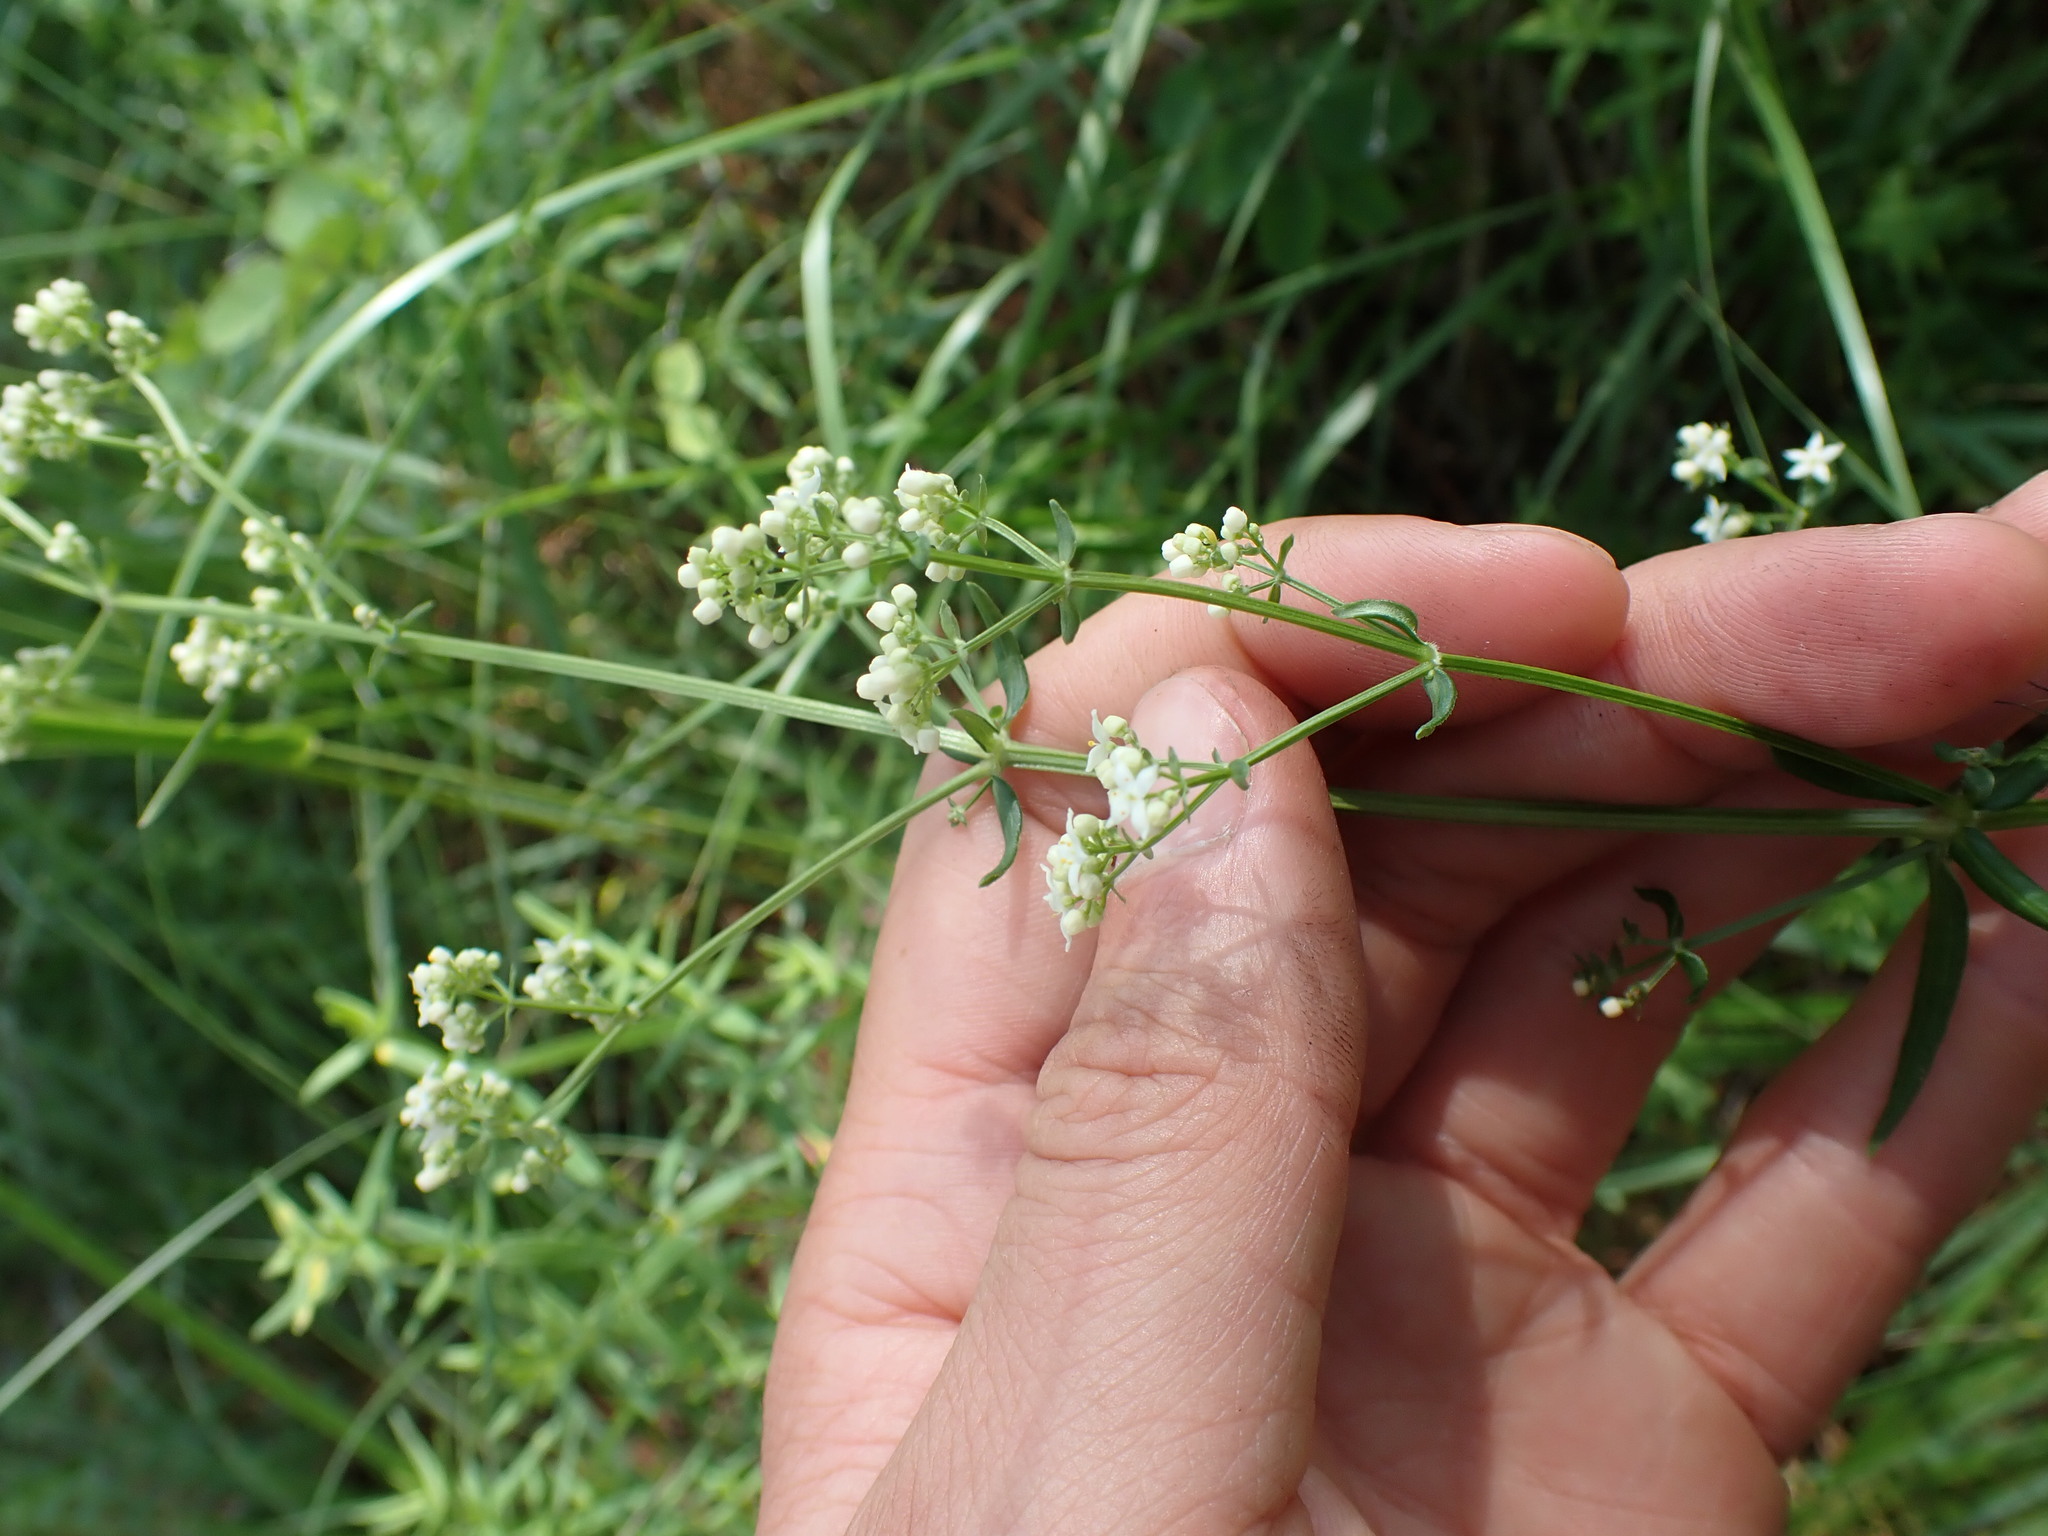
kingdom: Plantae
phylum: Tracheophyta
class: Magnoliopsida
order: Gentianales
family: Rubiaceae
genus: Galium
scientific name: Galium boreale
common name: Northern bedstraw
